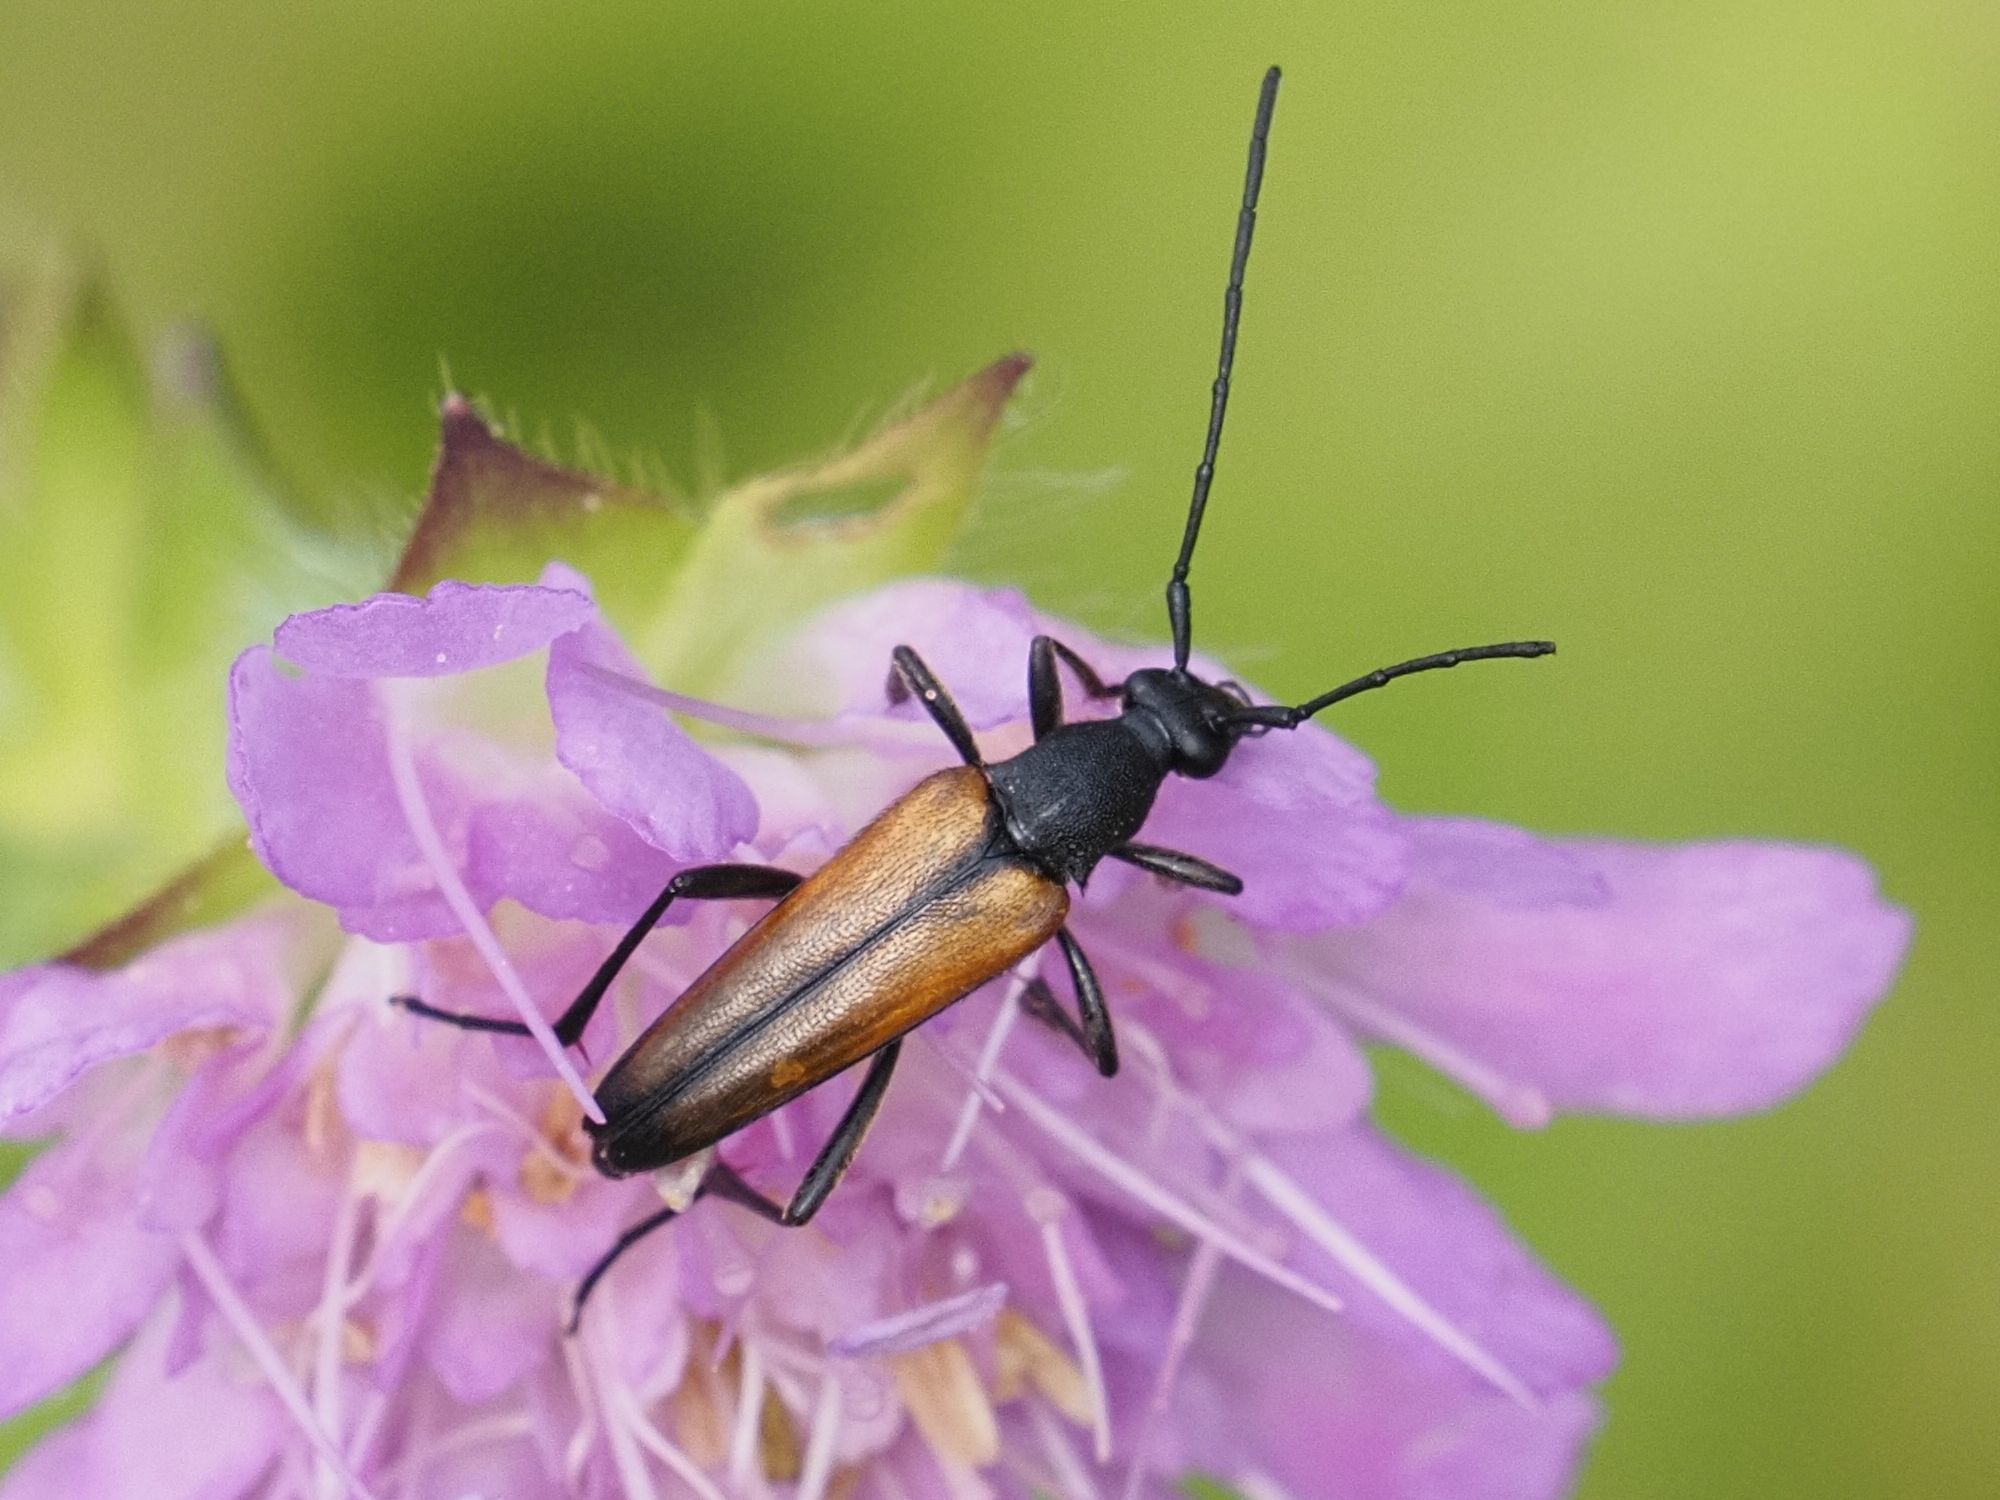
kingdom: Animalia
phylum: Arthropoda
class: Insecta
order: Coleoptera
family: Cerambycidae
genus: Stenurella
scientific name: Stenurella melanura
